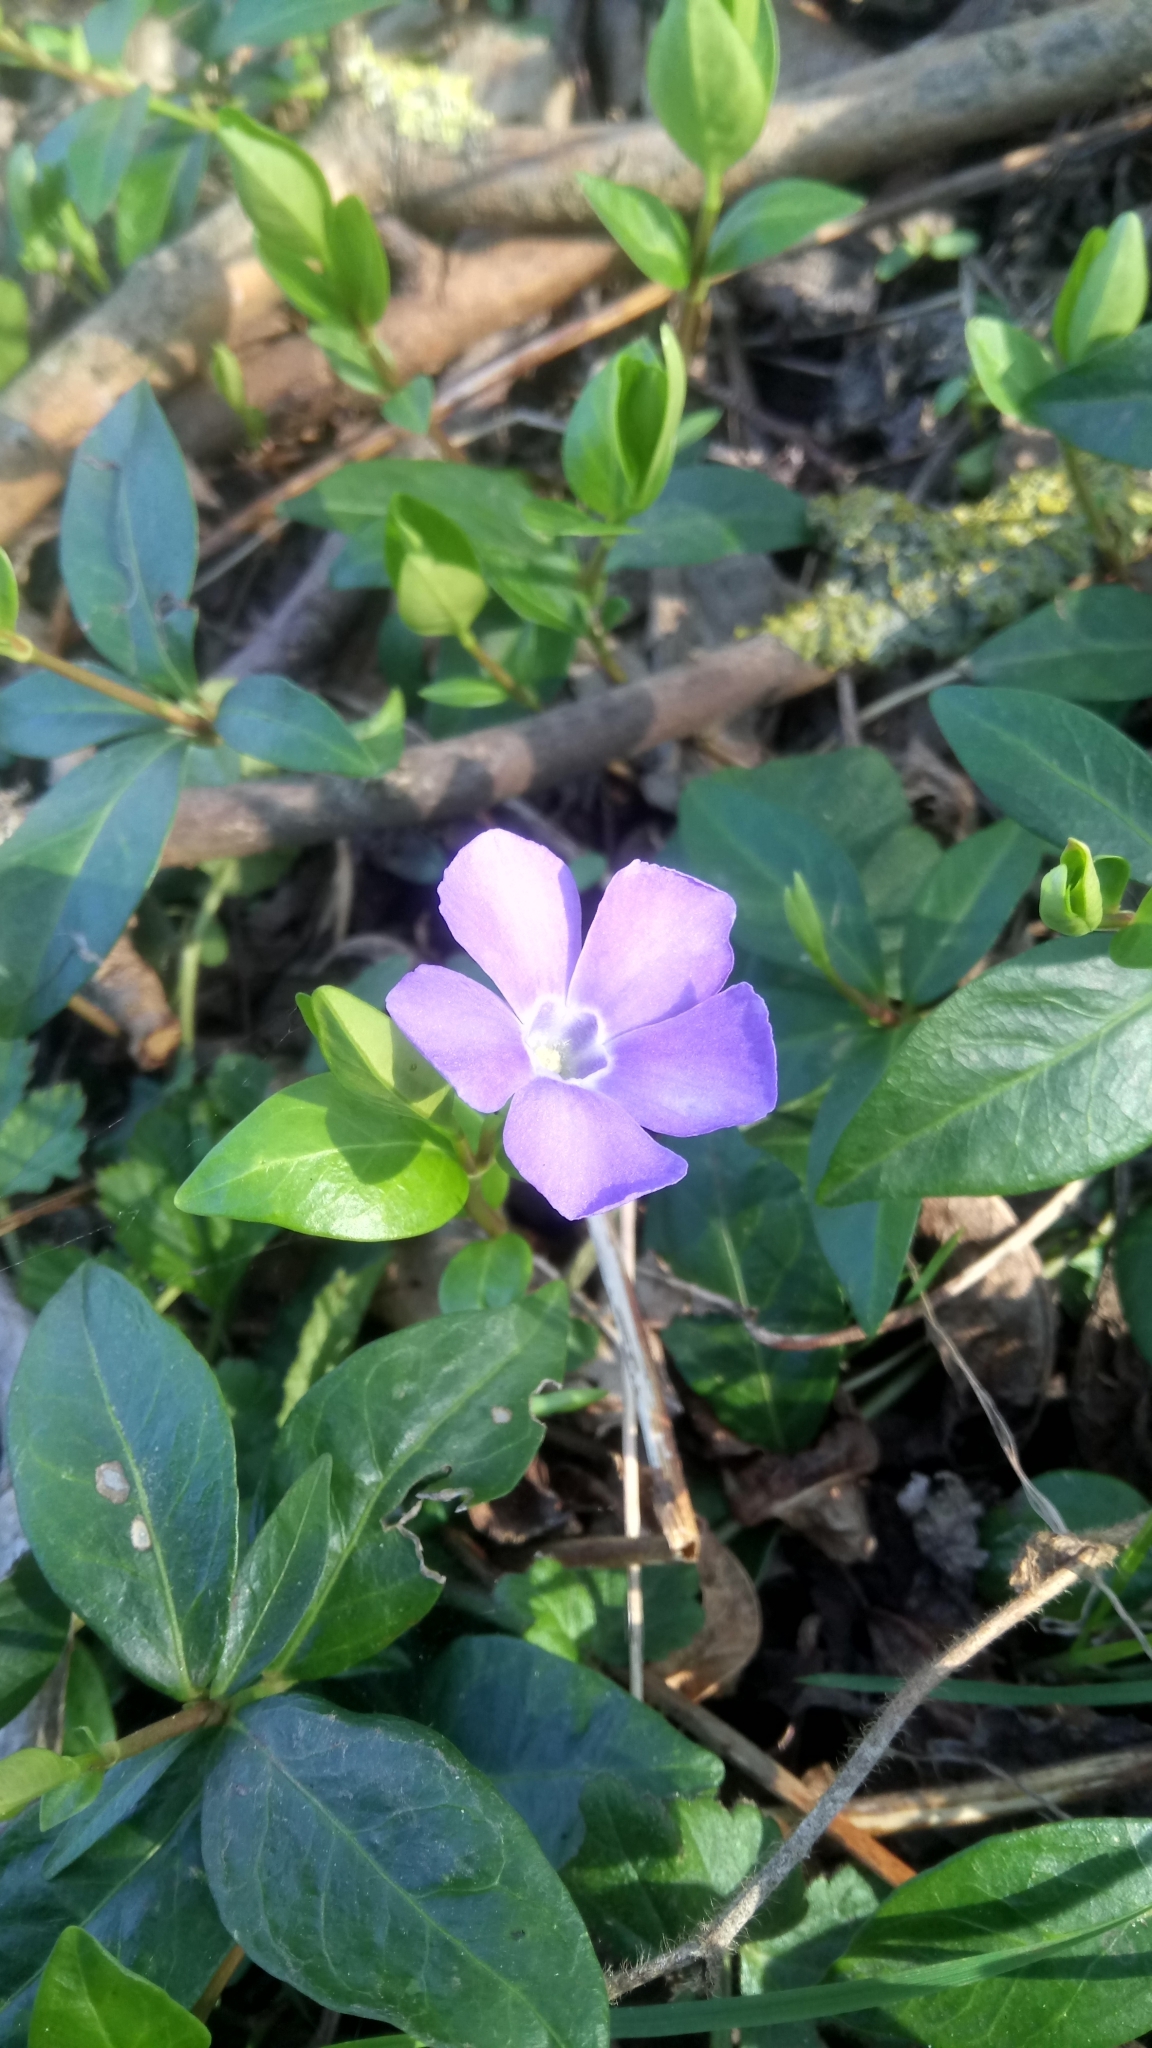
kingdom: Plantae
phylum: Tracheophyta
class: Magnoliopsida
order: Gentianales
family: Apocynaceae
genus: Vinca
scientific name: Vinca minor
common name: Lesser periwinkle
